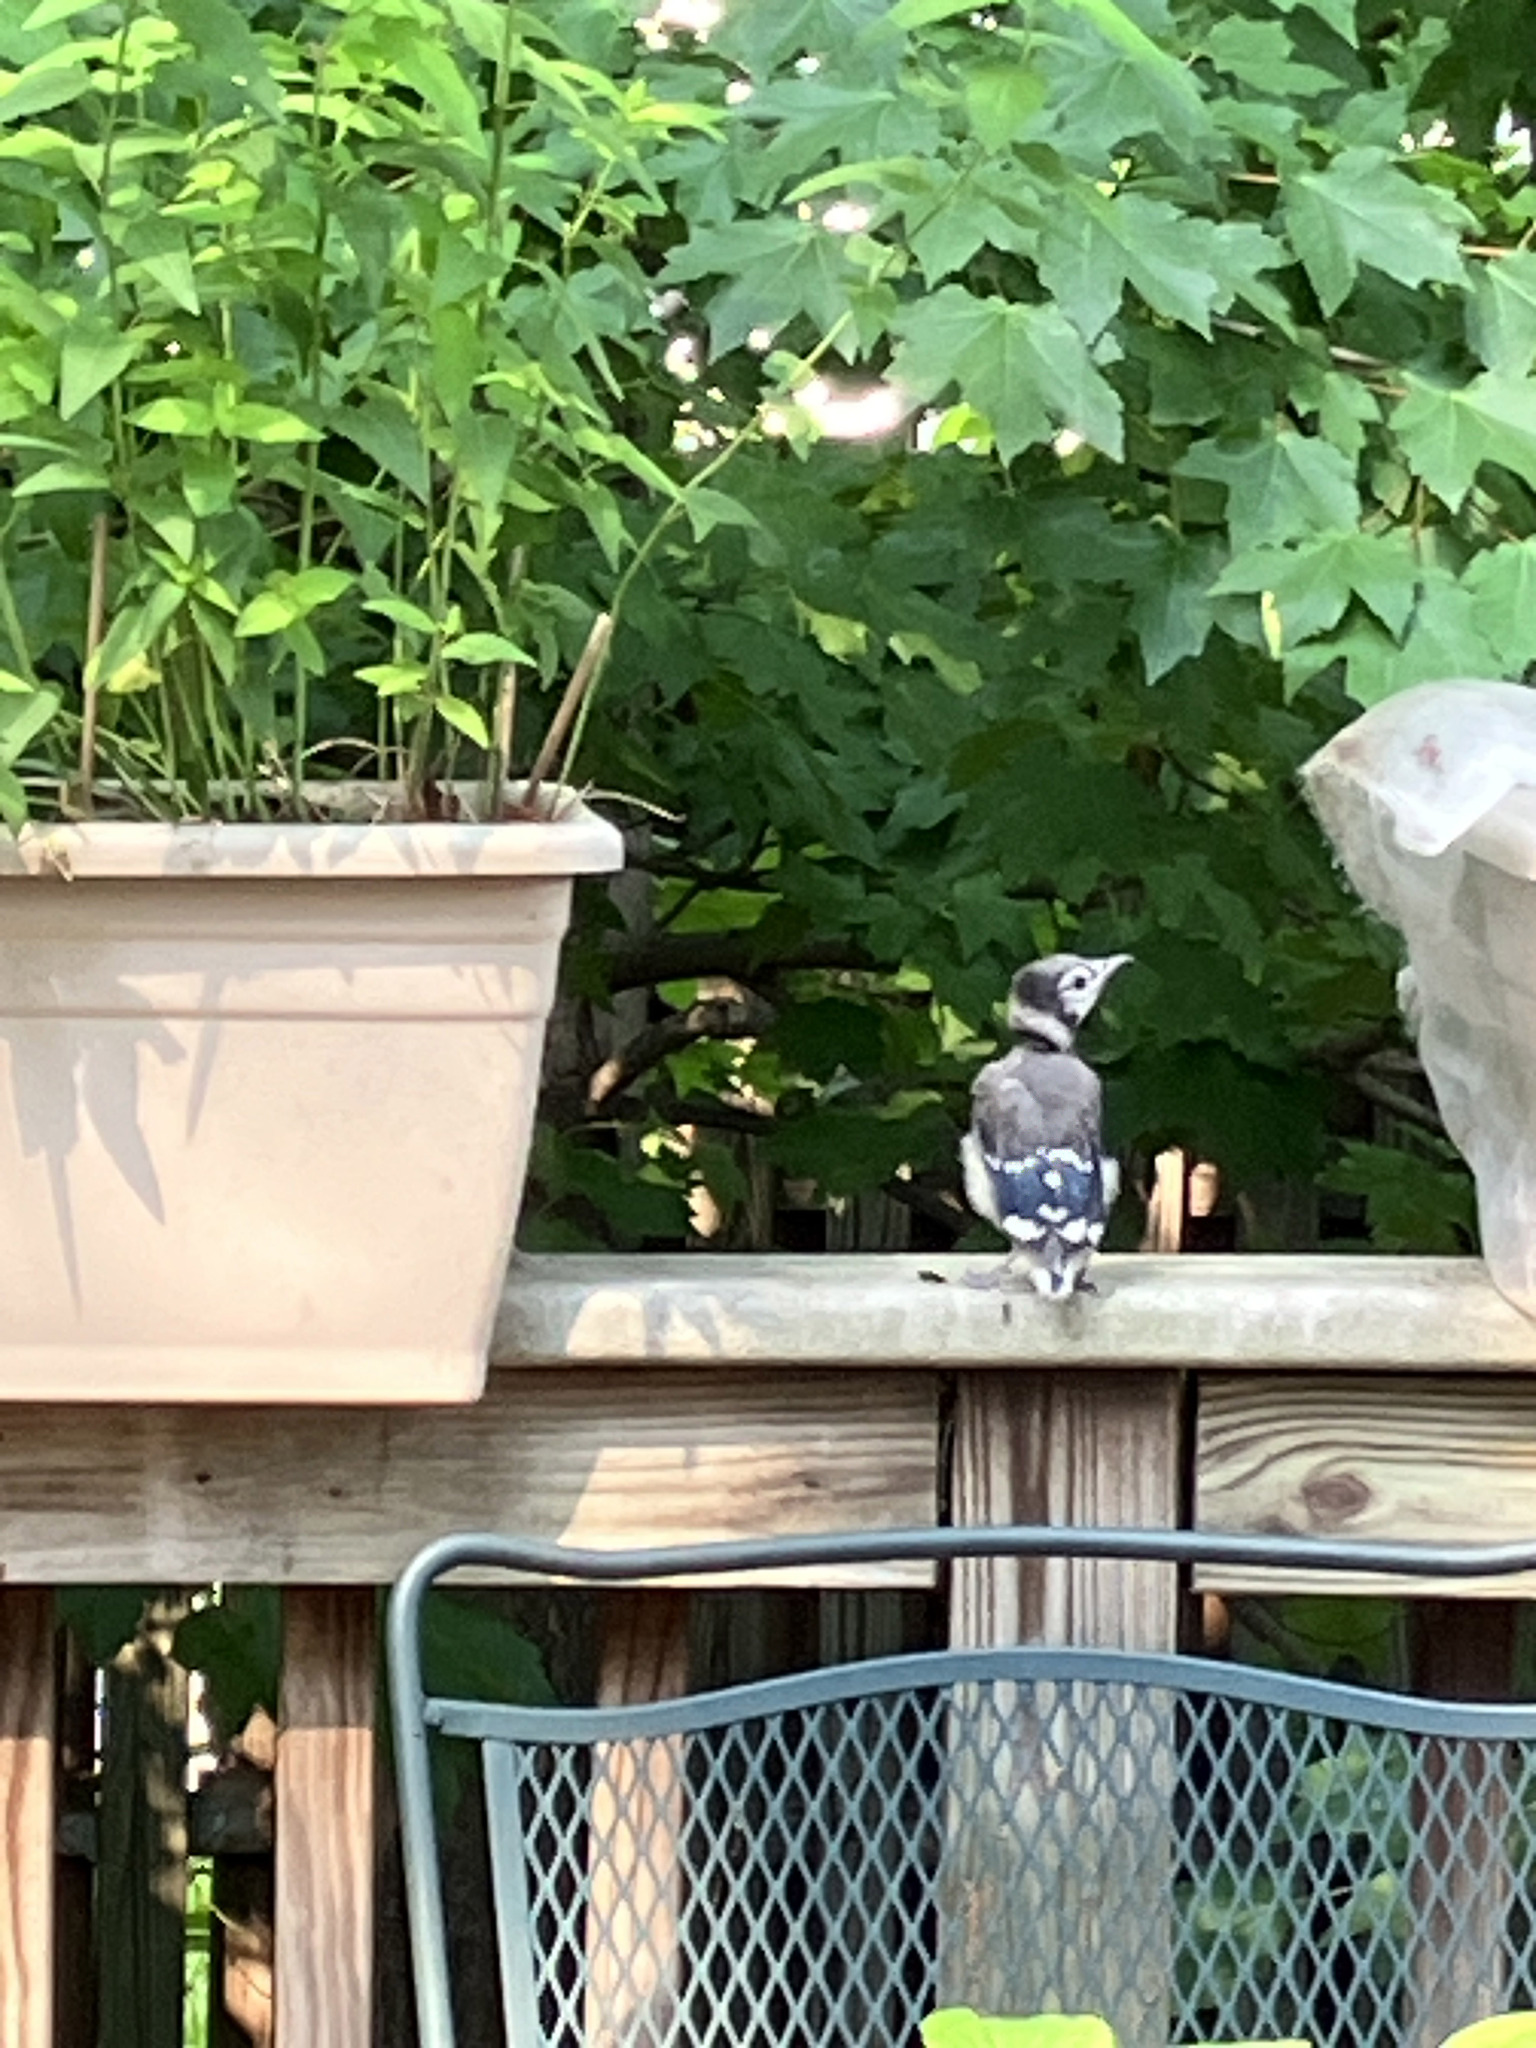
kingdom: Animalia
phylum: Chordata
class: Aves
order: Passeriformes
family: Corvidae
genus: Cyanocitta
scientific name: Cyanocitta cristata
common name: Blue jay
